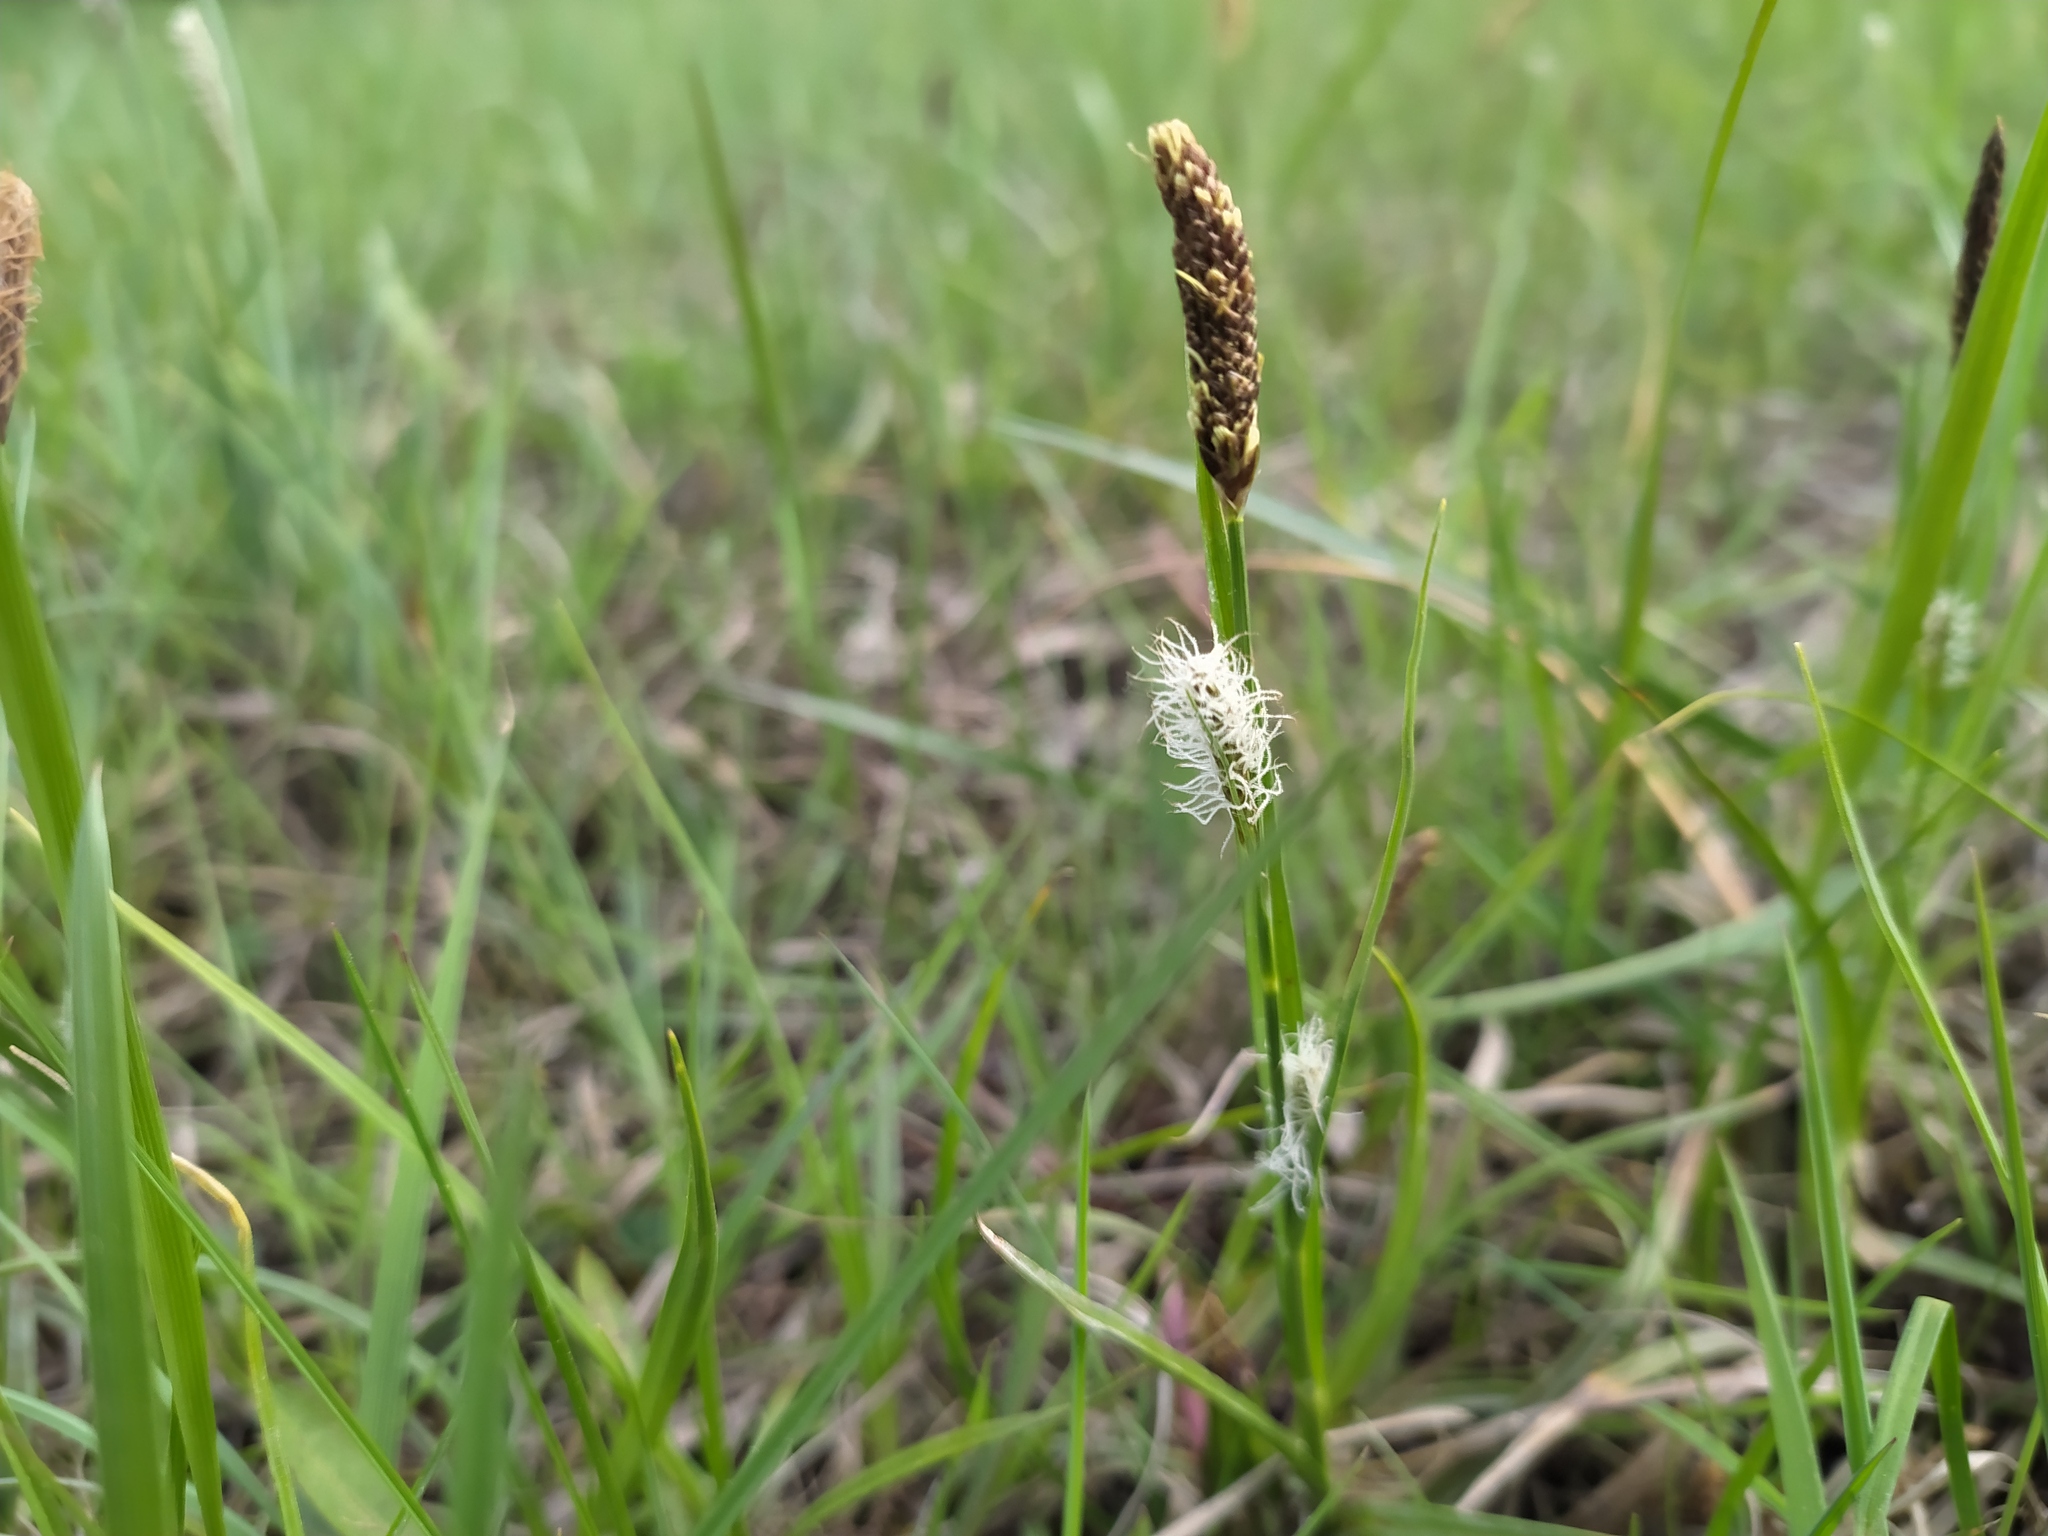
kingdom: Plantae
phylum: Tracheophyta
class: Liliopsida
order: Poales
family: Cyperaceae
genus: Carex
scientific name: Carex distans
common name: Distant sedge
